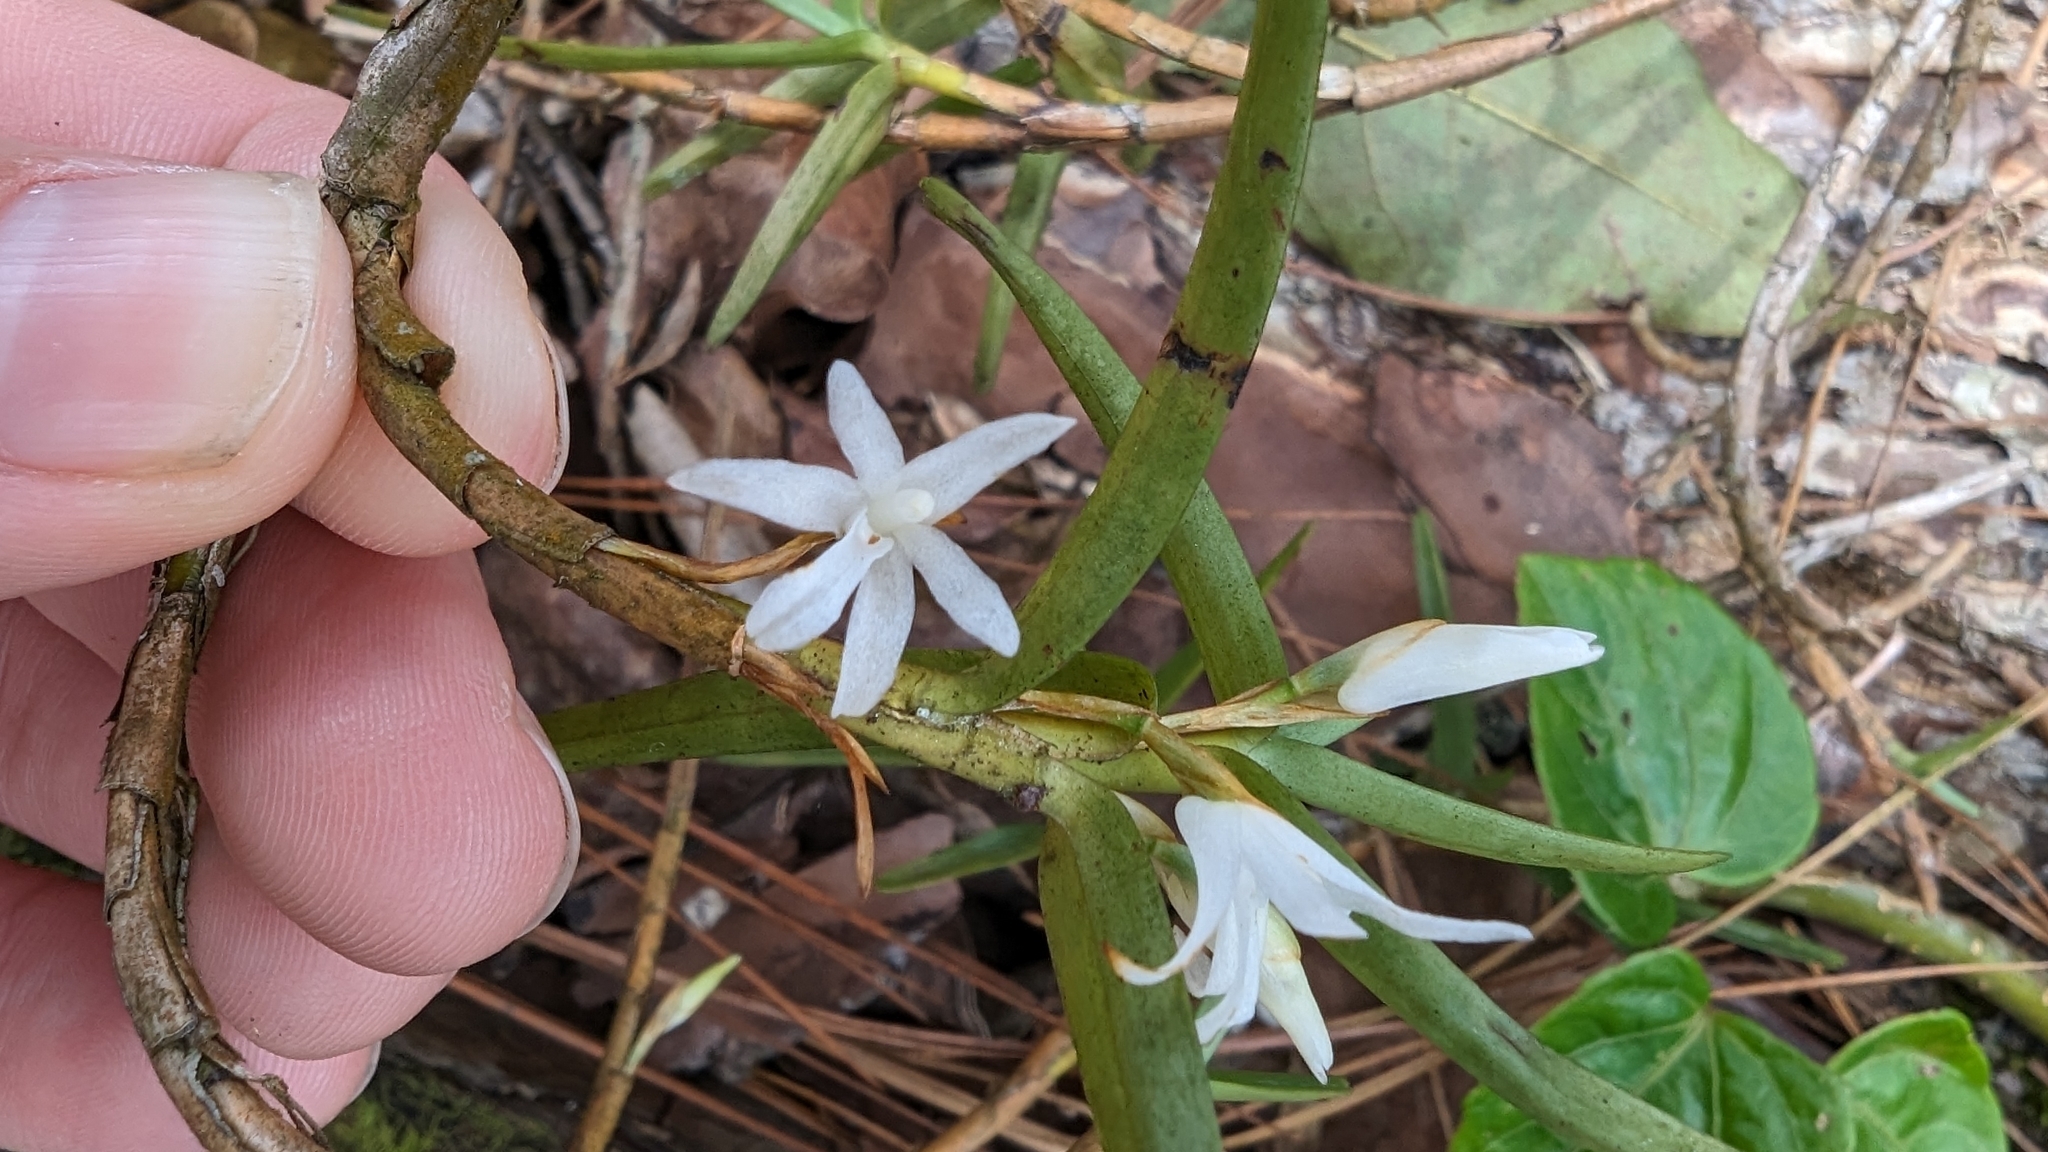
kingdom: Plantae
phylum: Tracheophyta
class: Liliopsida
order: Asparagales
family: Orchidaceae
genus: Maxillaria
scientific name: Maxillaria valerioi
